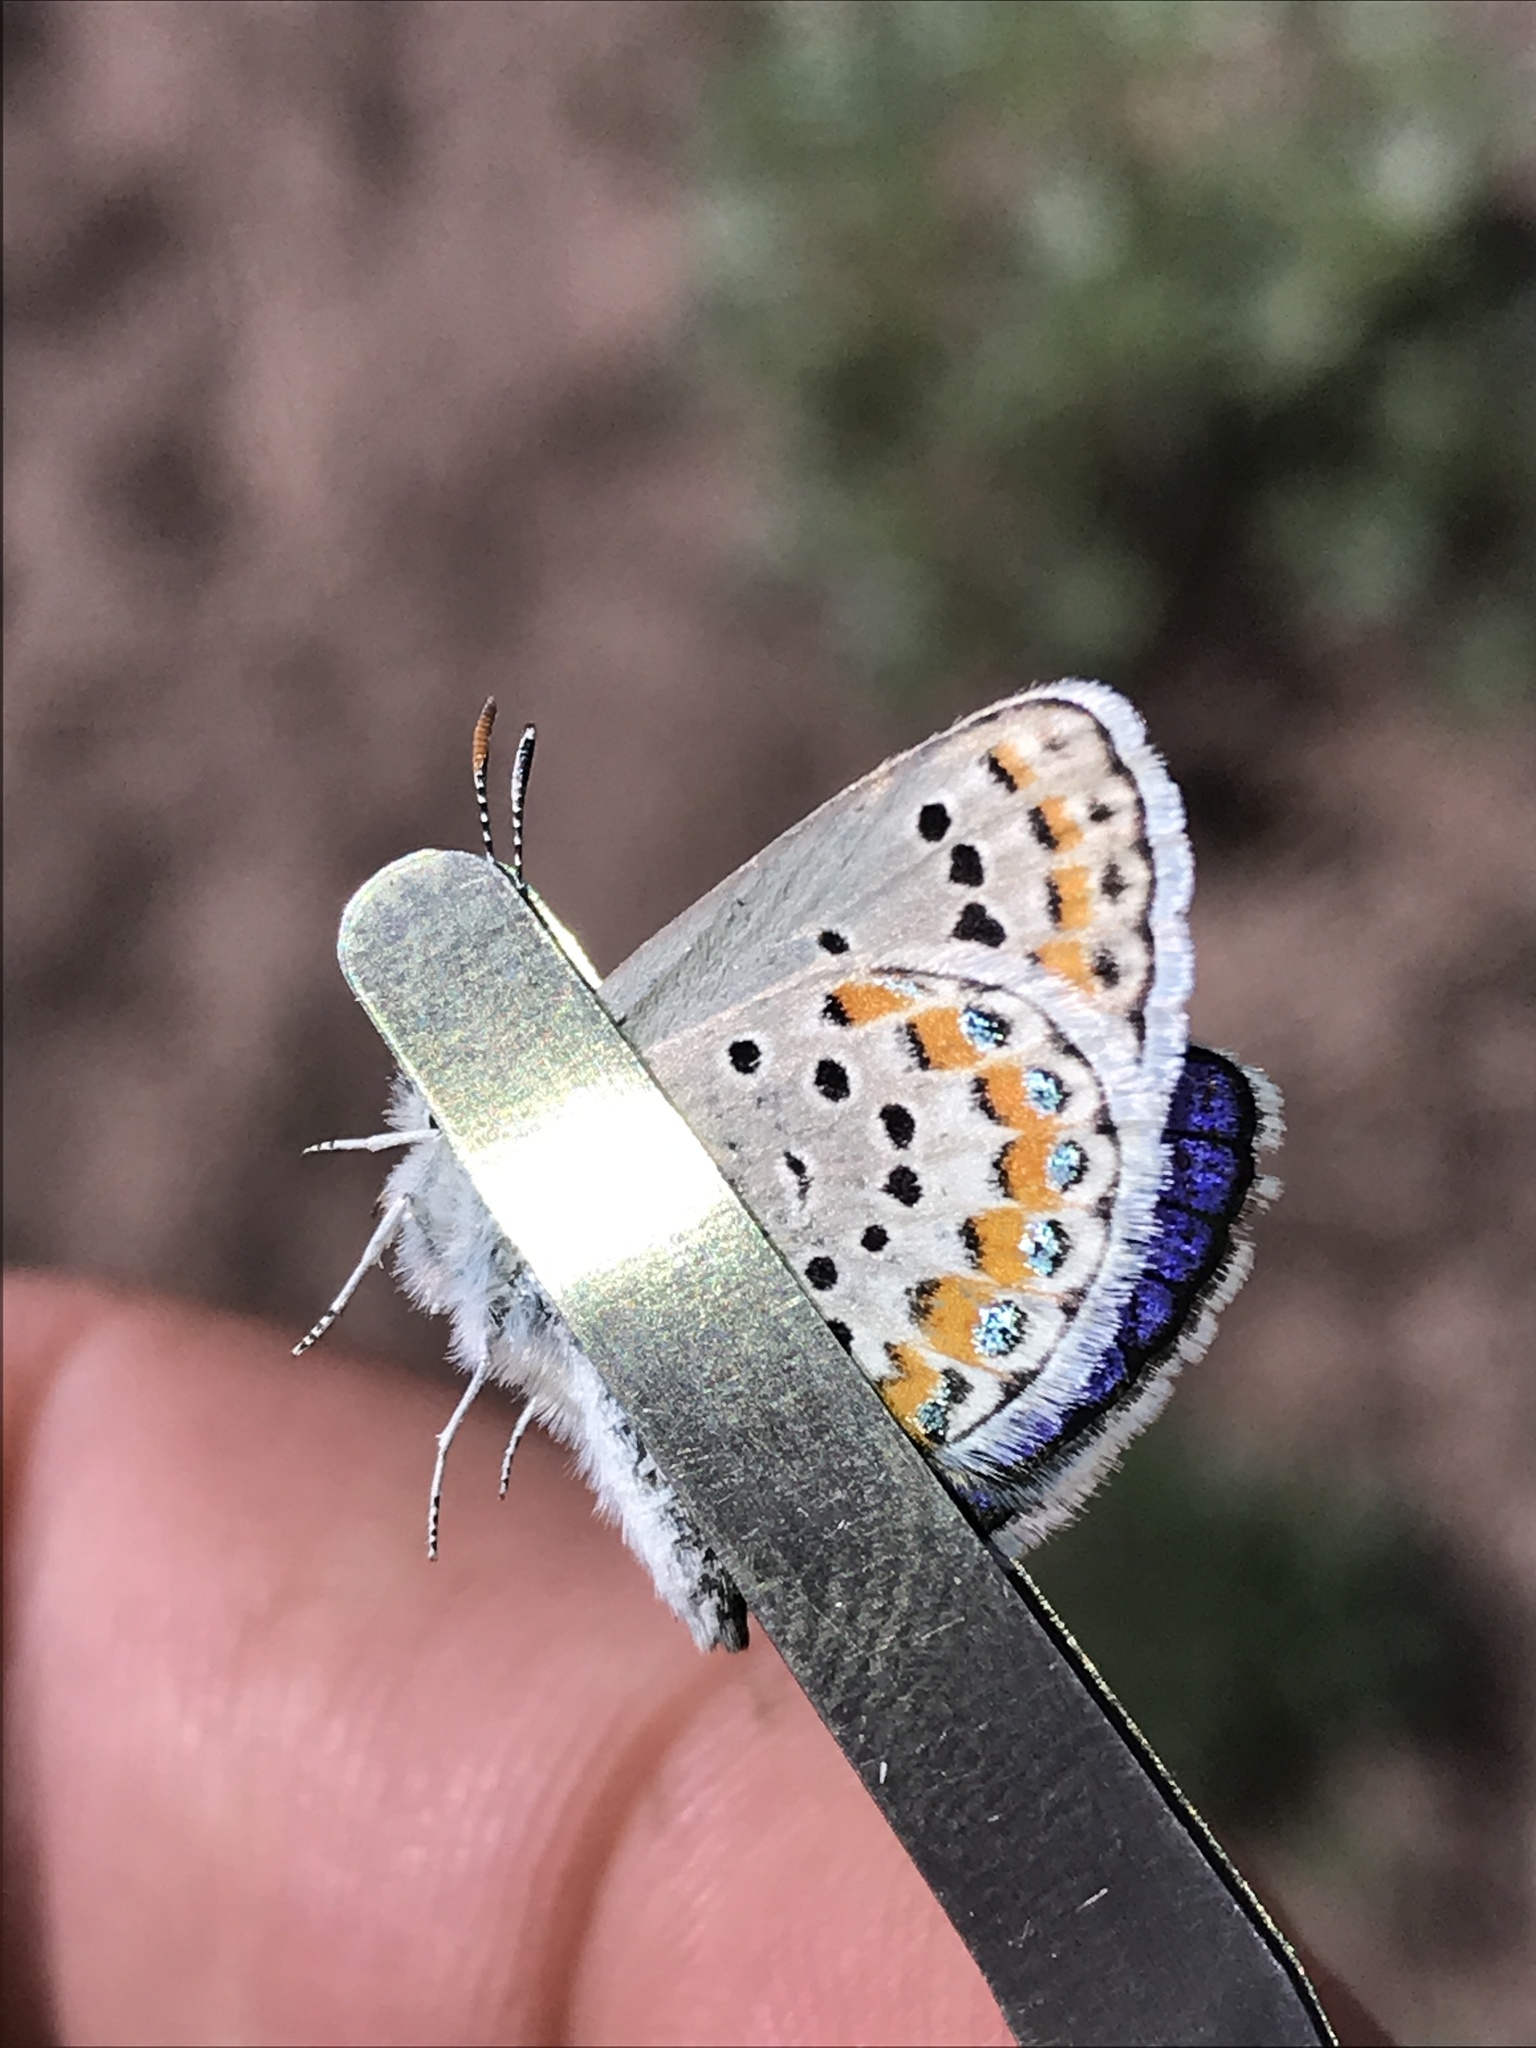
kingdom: Animalia
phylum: Arthropoda
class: Insecta
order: Lepidoptera
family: Lycaenidae
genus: Lycaeides
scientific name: Lycaeides melissa
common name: Melissa blue
